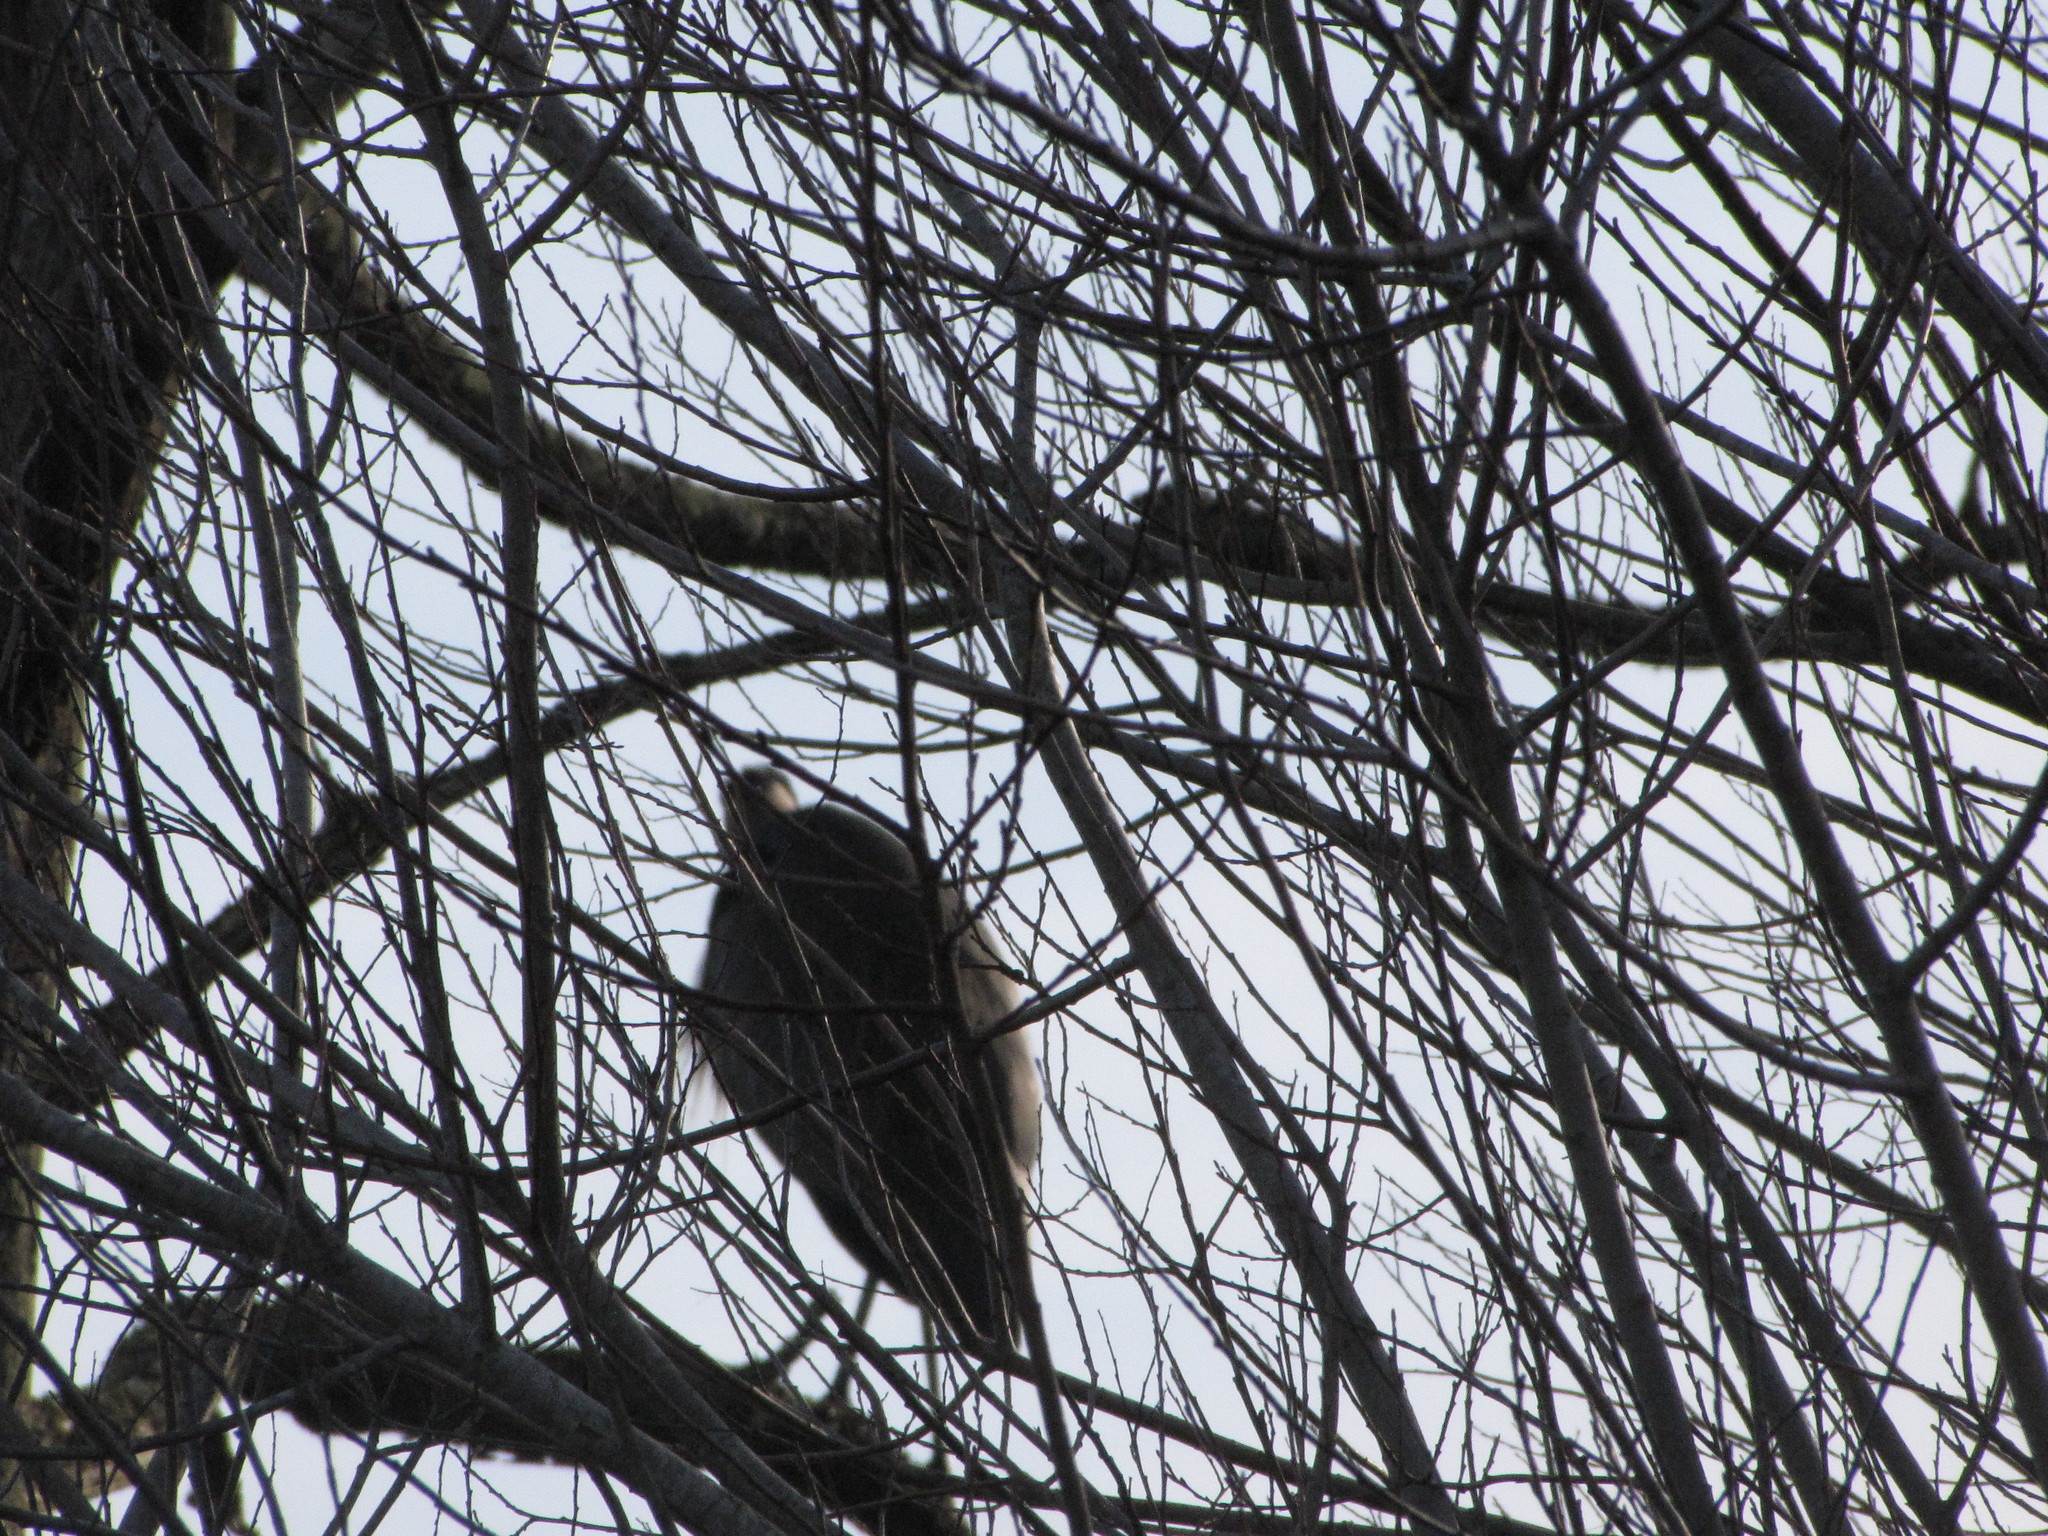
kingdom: Animalia
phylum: Chordata
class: Aves
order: Pelecaniformes
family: Ardeidae
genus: Ardea
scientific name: Ardea herodias
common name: Great blue heron
